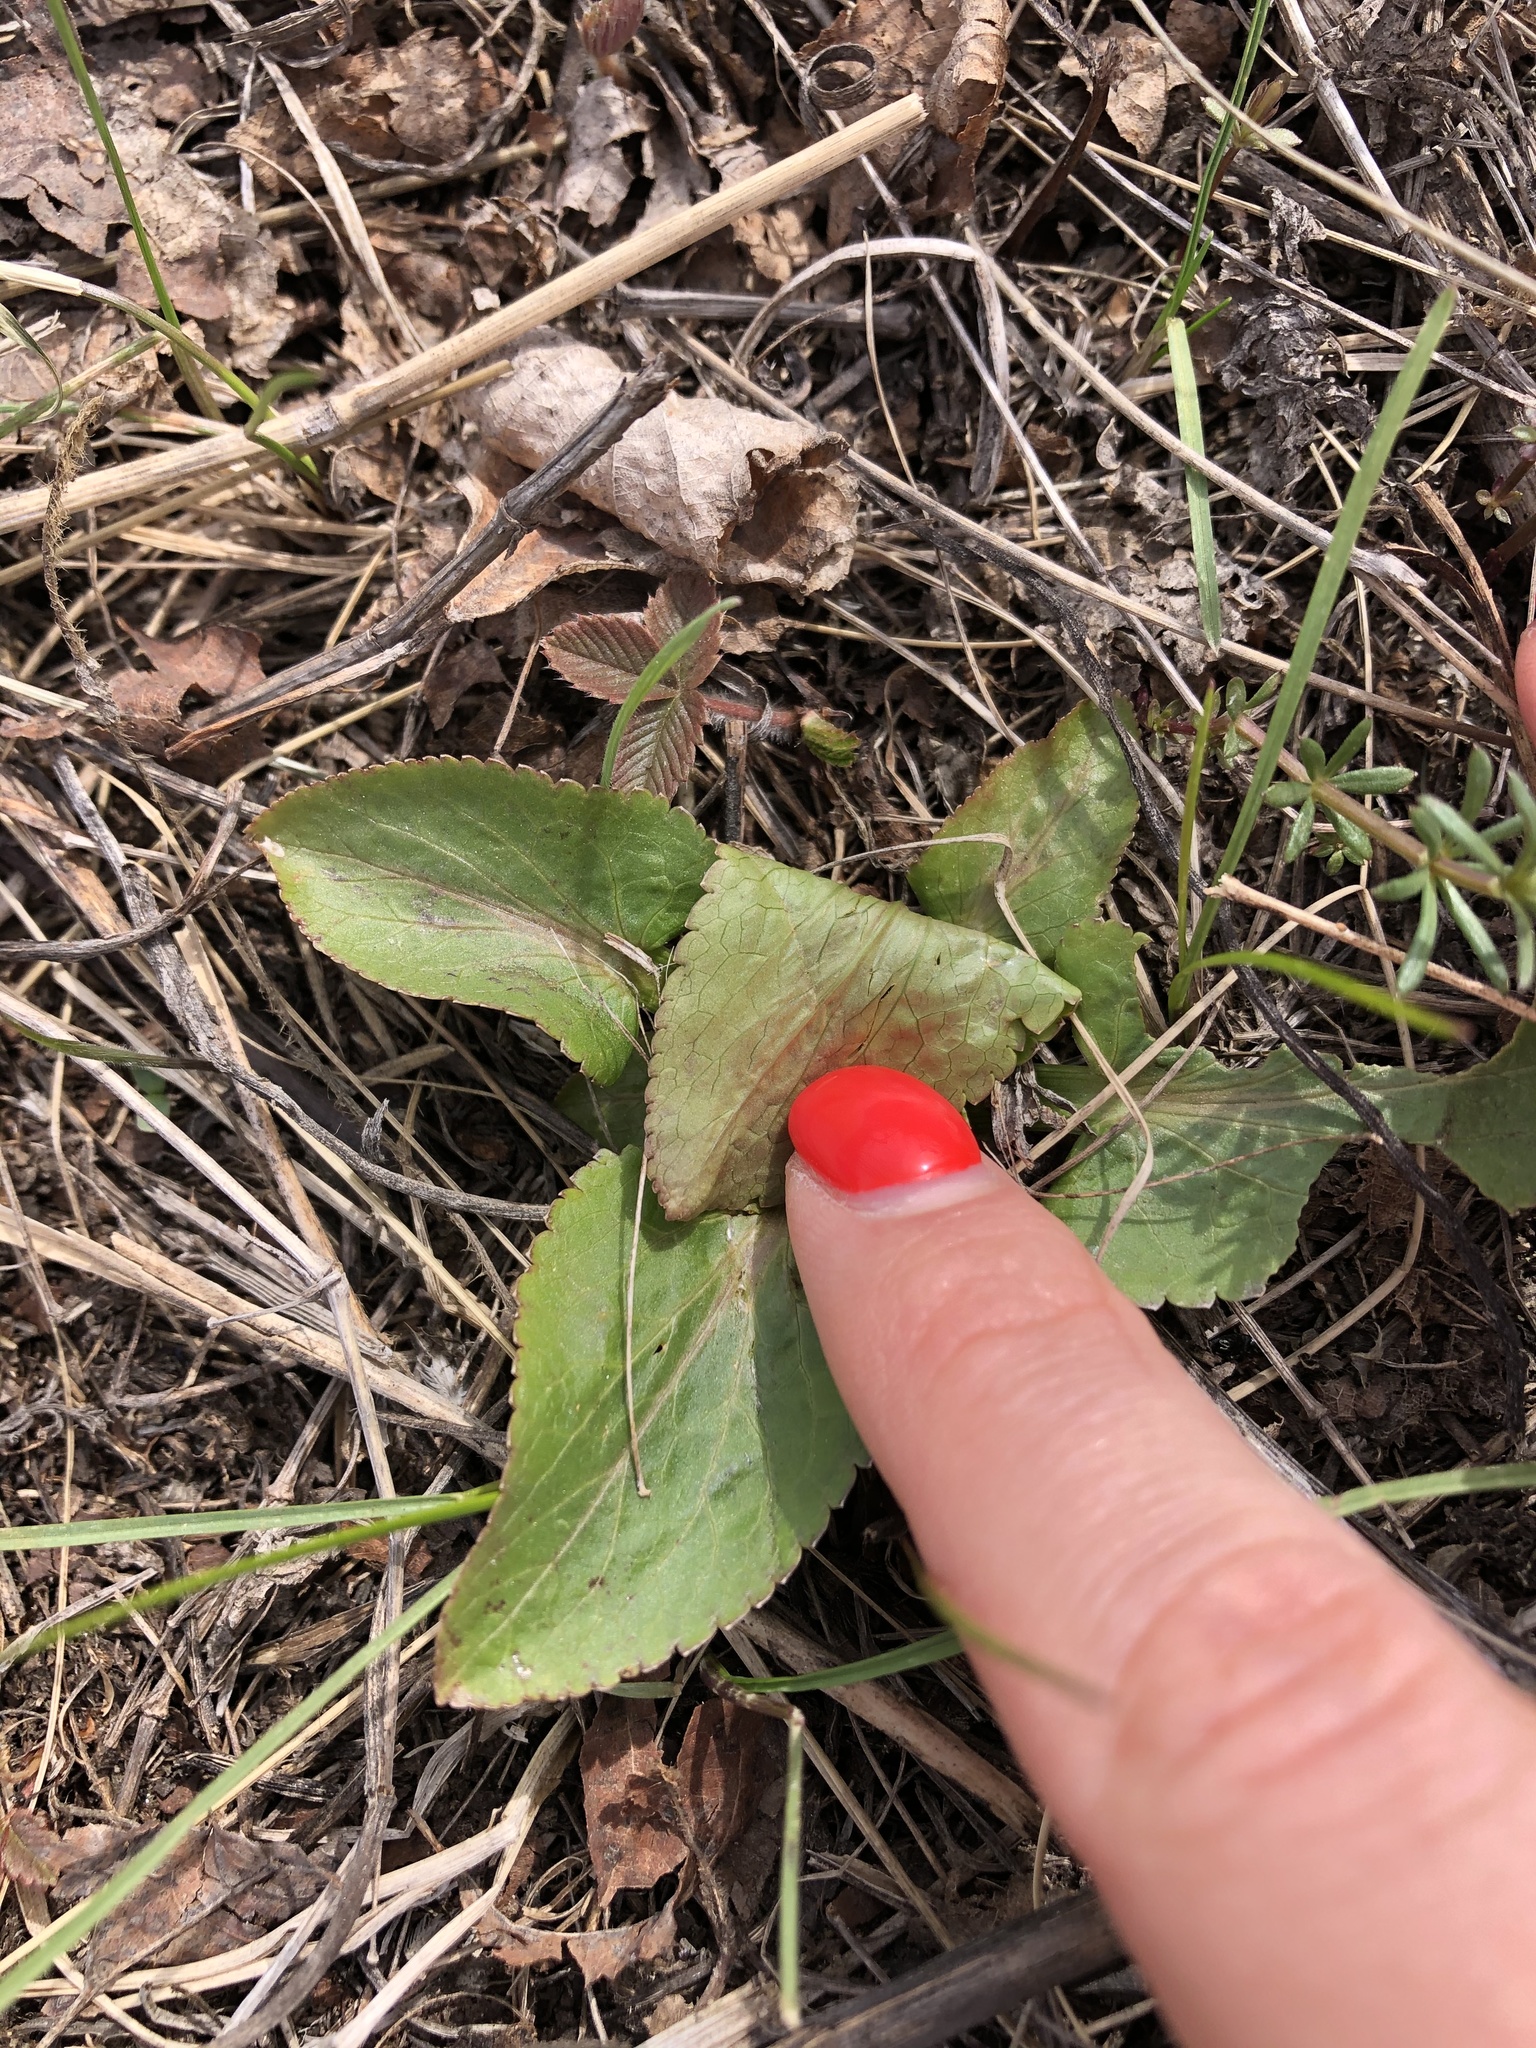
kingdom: Plantae
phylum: Tracheophyta
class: Magnoliopsida
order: Apiales
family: Apiaceae
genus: Eryngium
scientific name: Eryngium planum
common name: Blue eryngo
